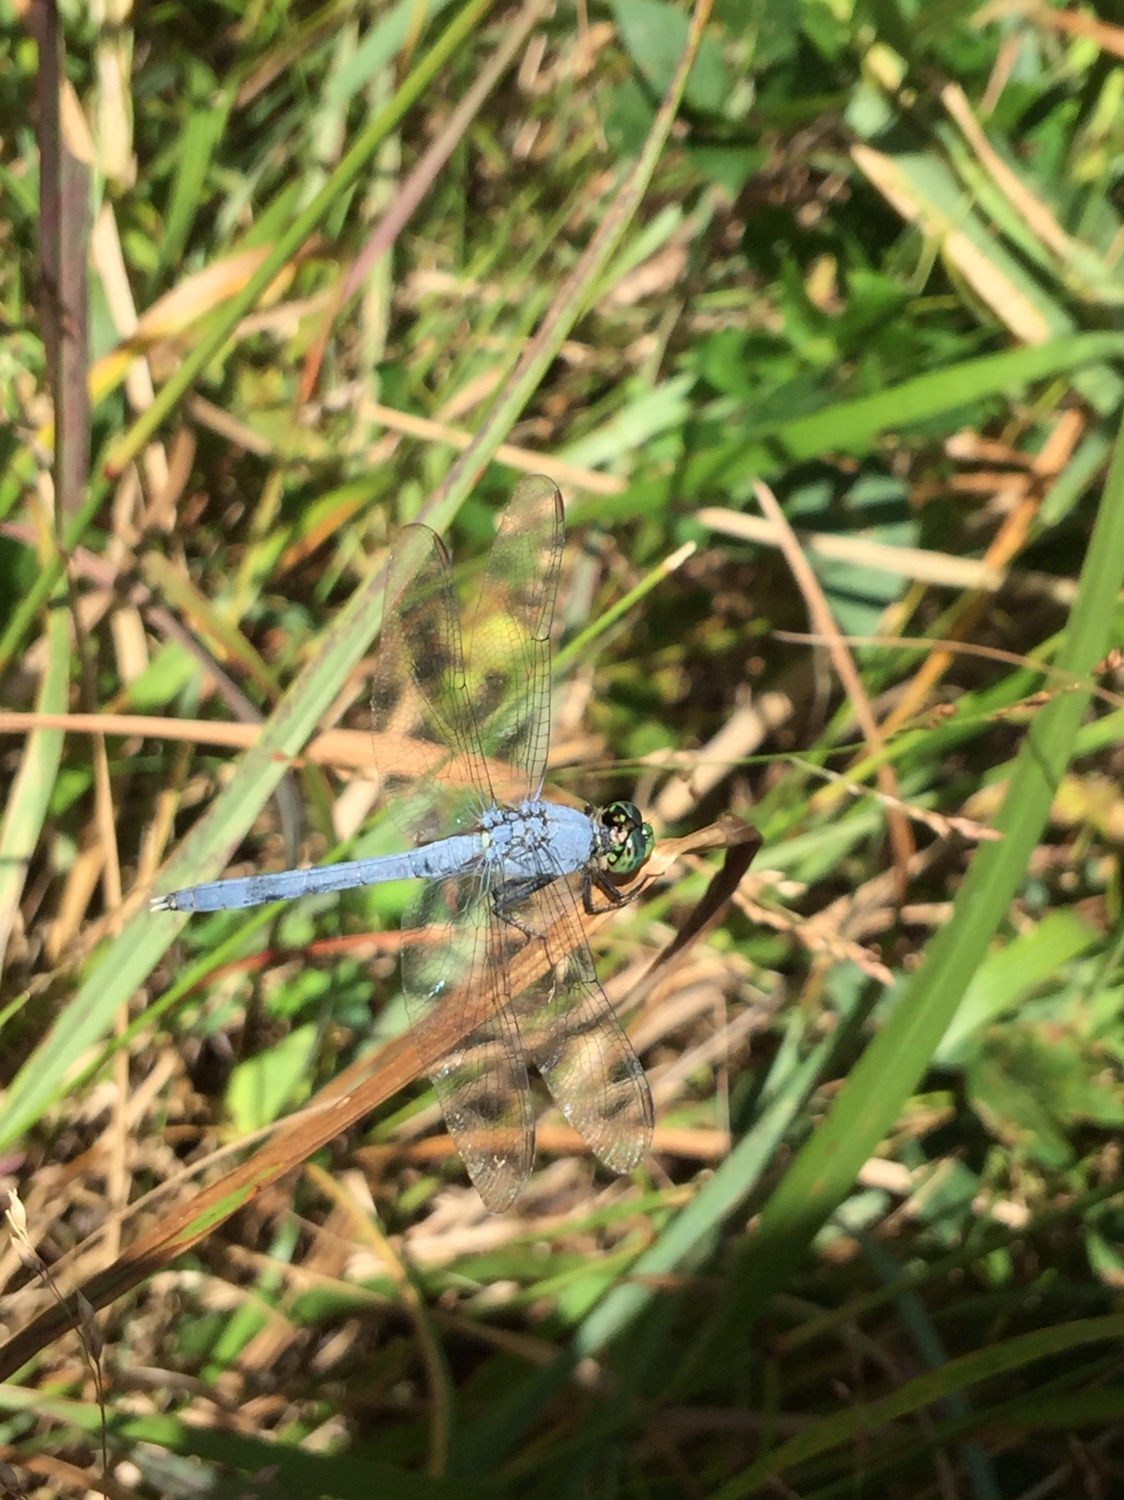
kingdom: Animalia
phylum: Arthropoda
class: Insecta
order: Odonata
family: Libellulidae
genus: Erythemis
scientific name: Erythemis simplicicollis
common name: Eastern pondhawk
